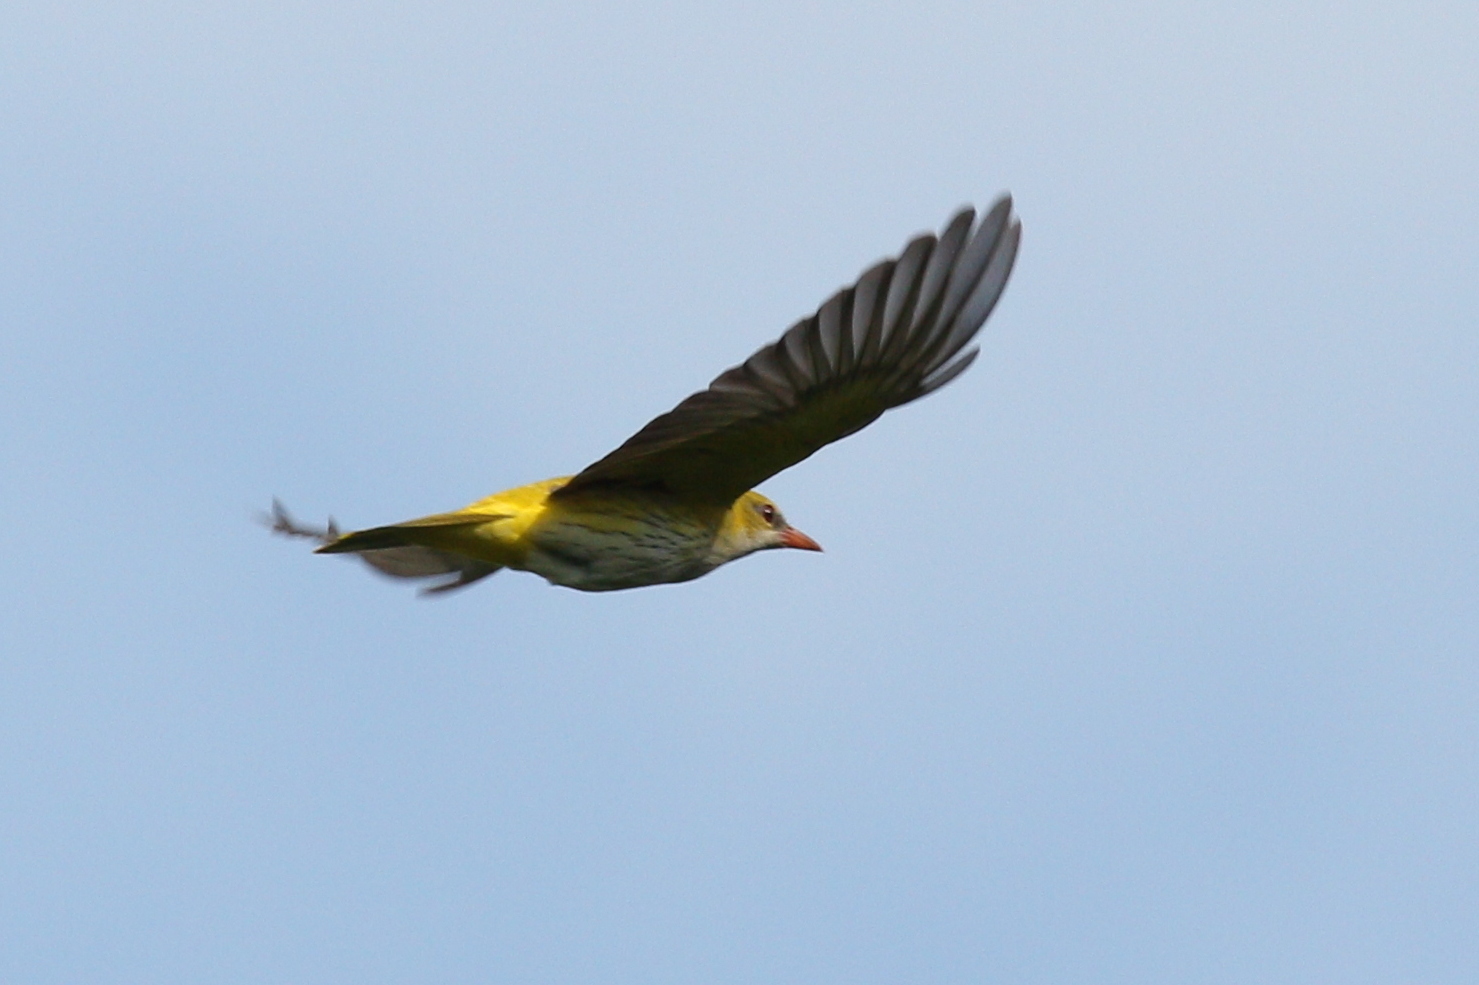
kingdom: Animalia
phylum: Chordata
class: Aves
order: Passeriformes
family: Oriolidae
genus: Oriolus
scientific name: Oriolus oriolus
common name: Eurasian golden oriole
